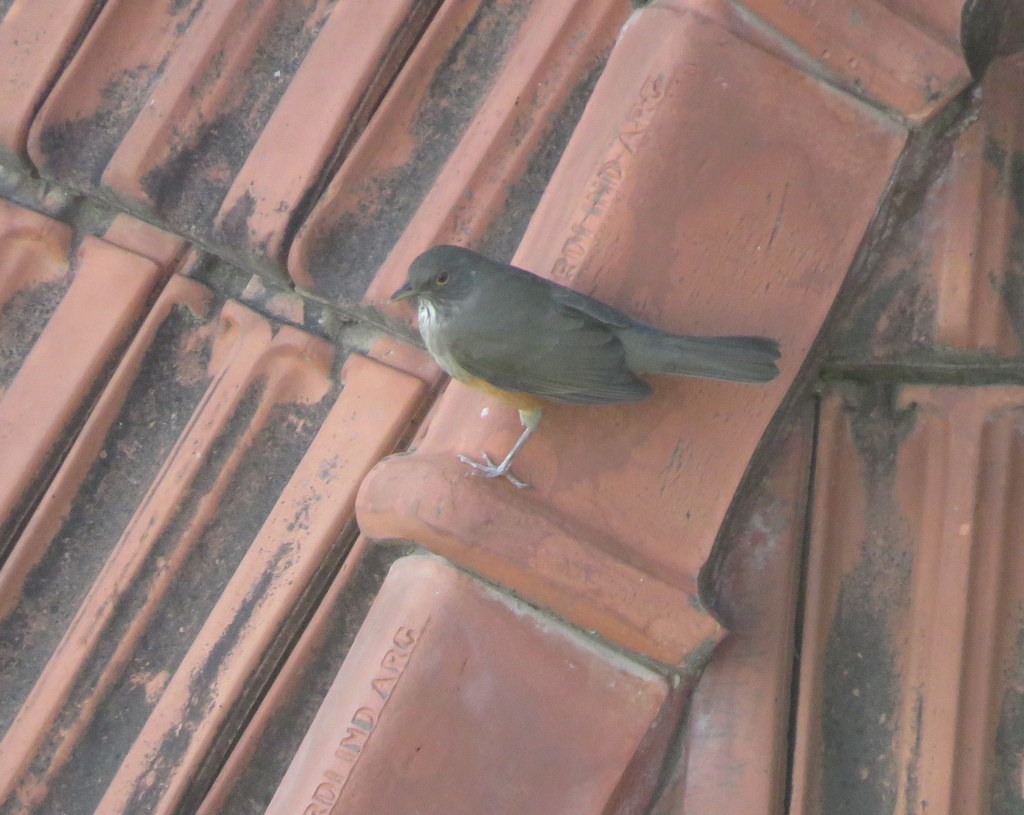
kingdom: Animalia
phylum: Chordata
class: Aves
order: Passeriformes
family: Turdidae
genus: Turdus
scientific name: Turdus rufiventris
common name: Rufous-bellied thrush
